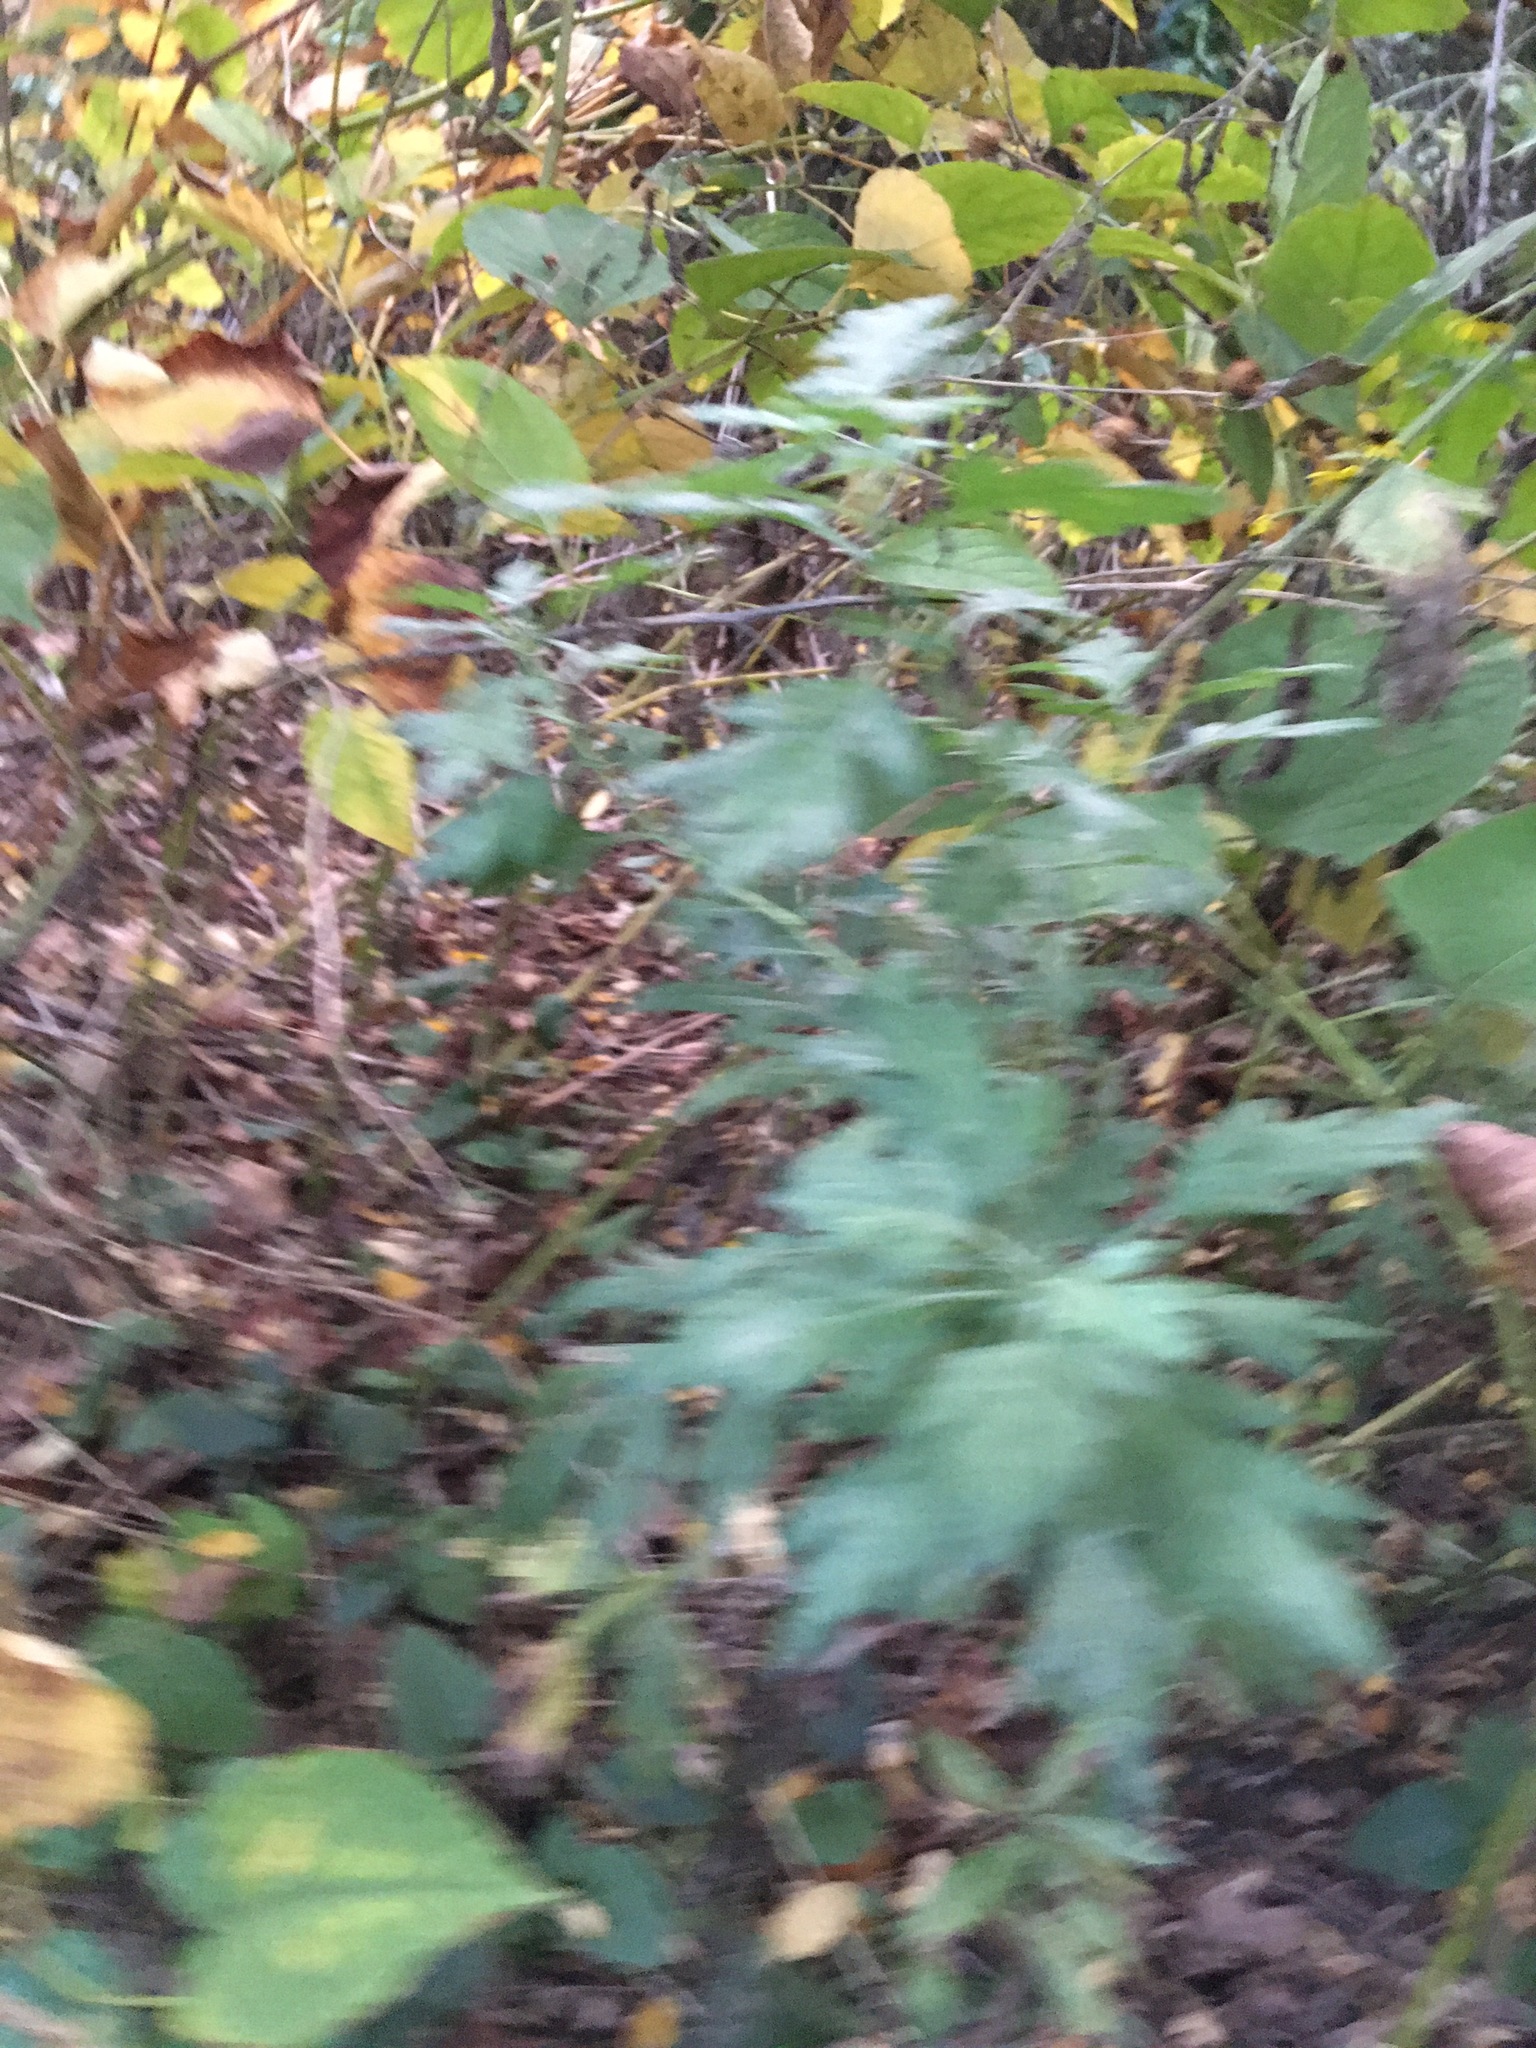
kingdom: Plantae
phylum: Tracheophyta
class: Magnoliopsida
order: Asterales
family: Asteraceae
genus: Artemisia
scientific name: Artemisia vulgaris
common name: Mugwort
